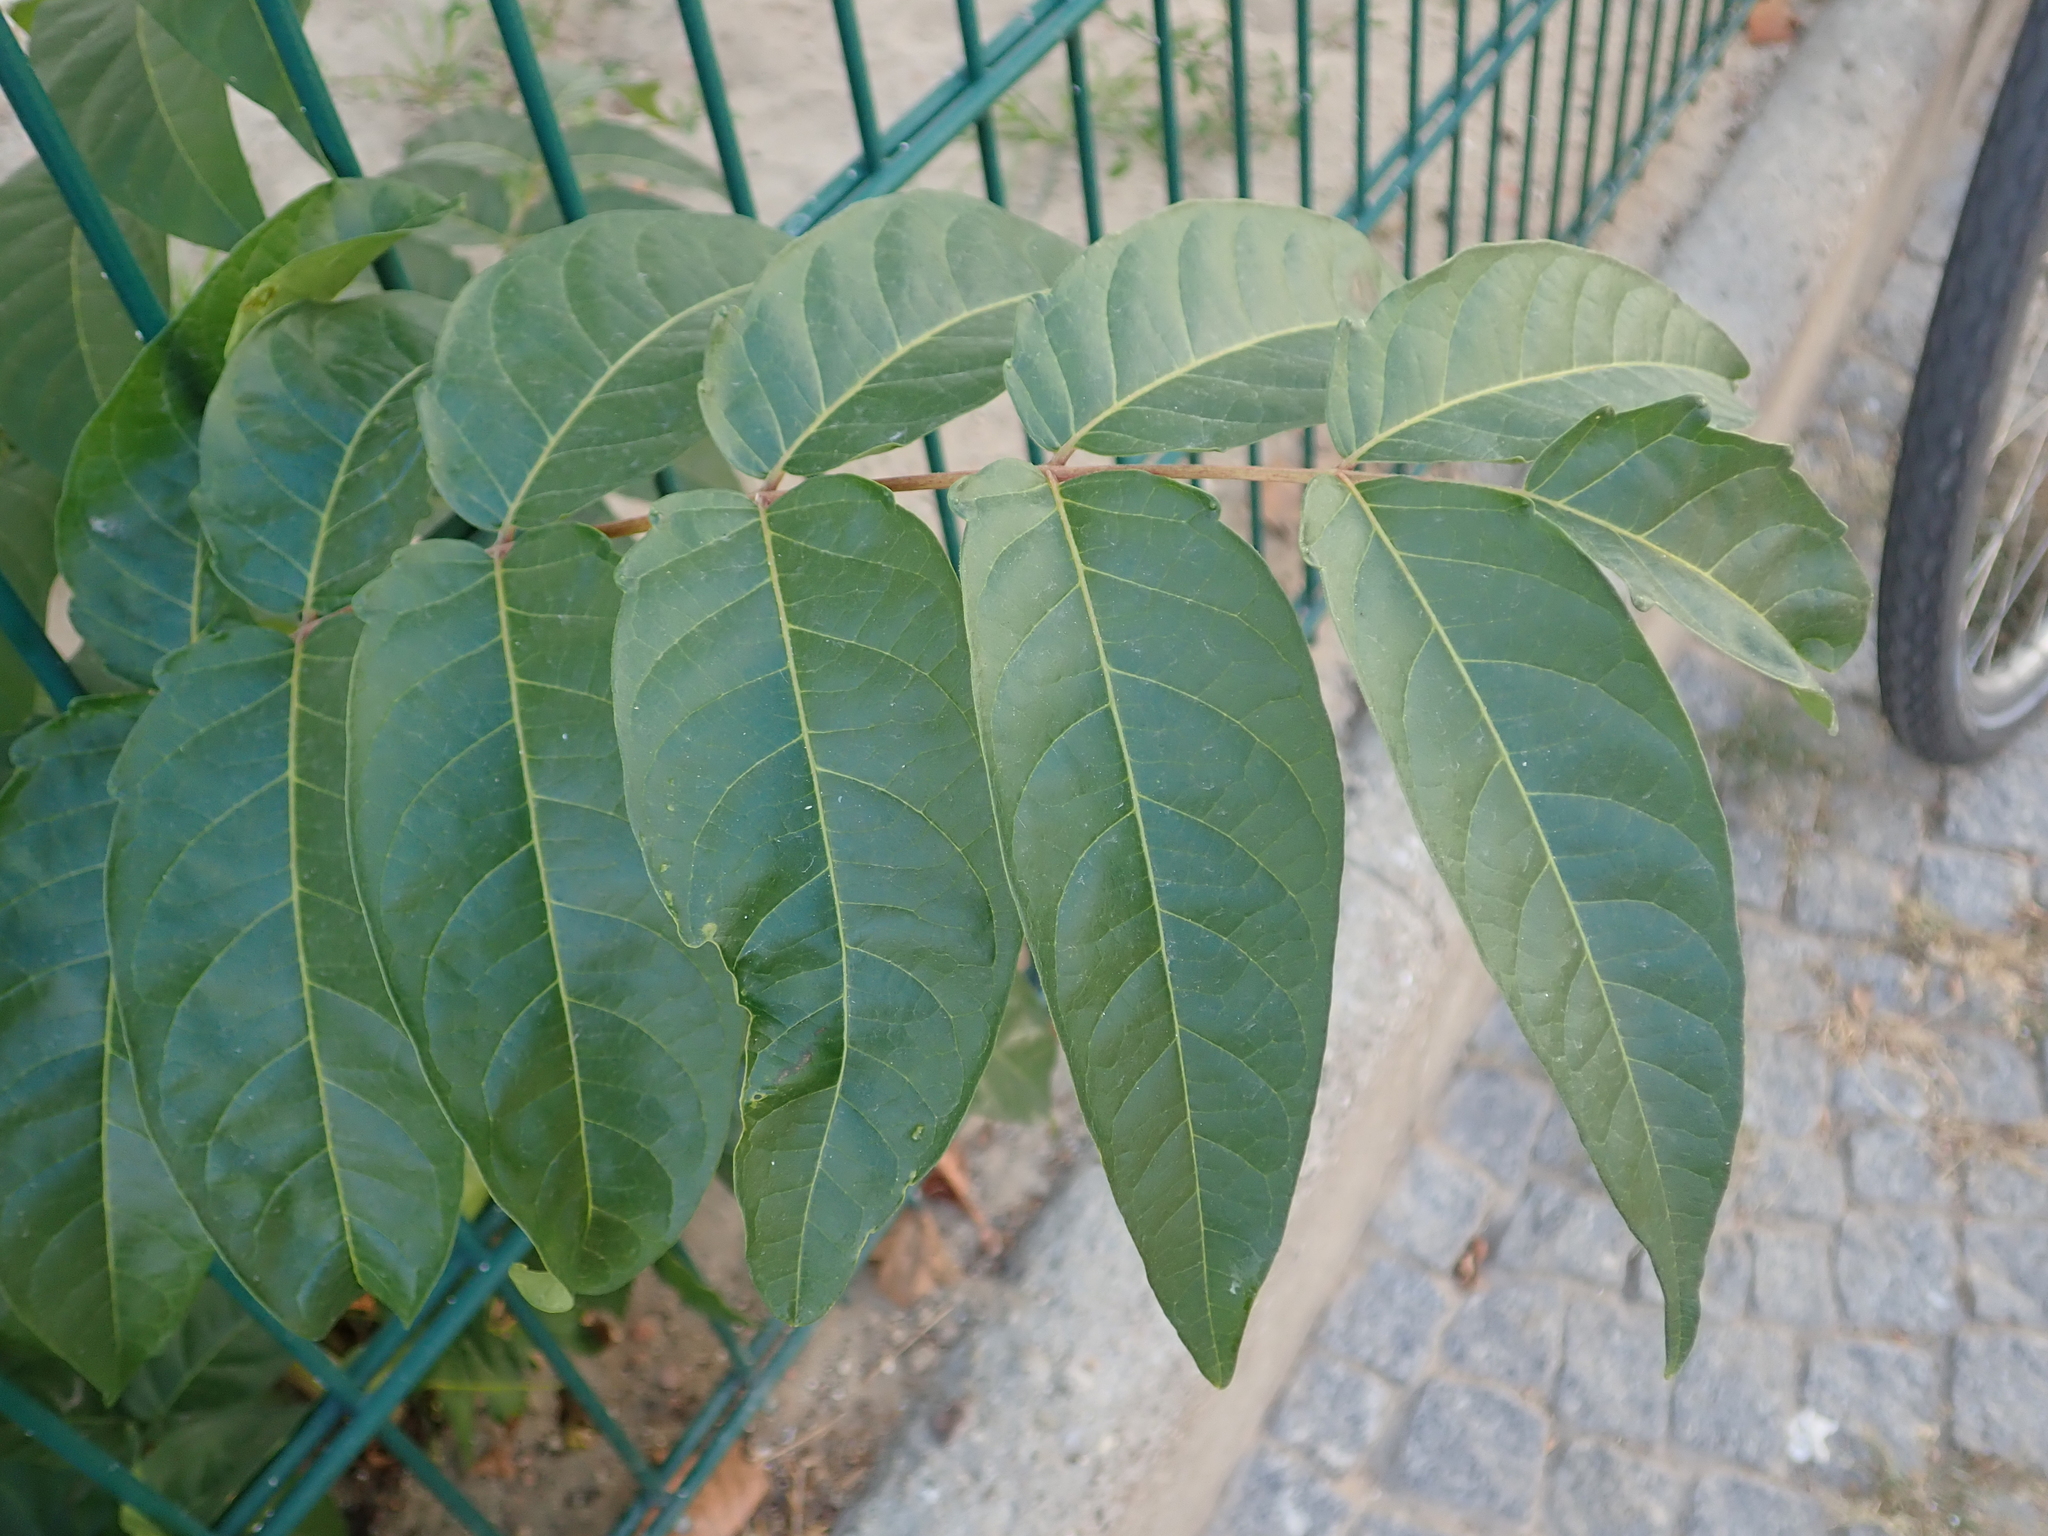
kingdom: Plantae
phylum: Tracheophyta
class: Magnoliopsida
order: Sapindales
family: Simaroubaceae
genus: Ailanthus
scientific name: Ailanthus altissima
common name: Tree-of-heaven
